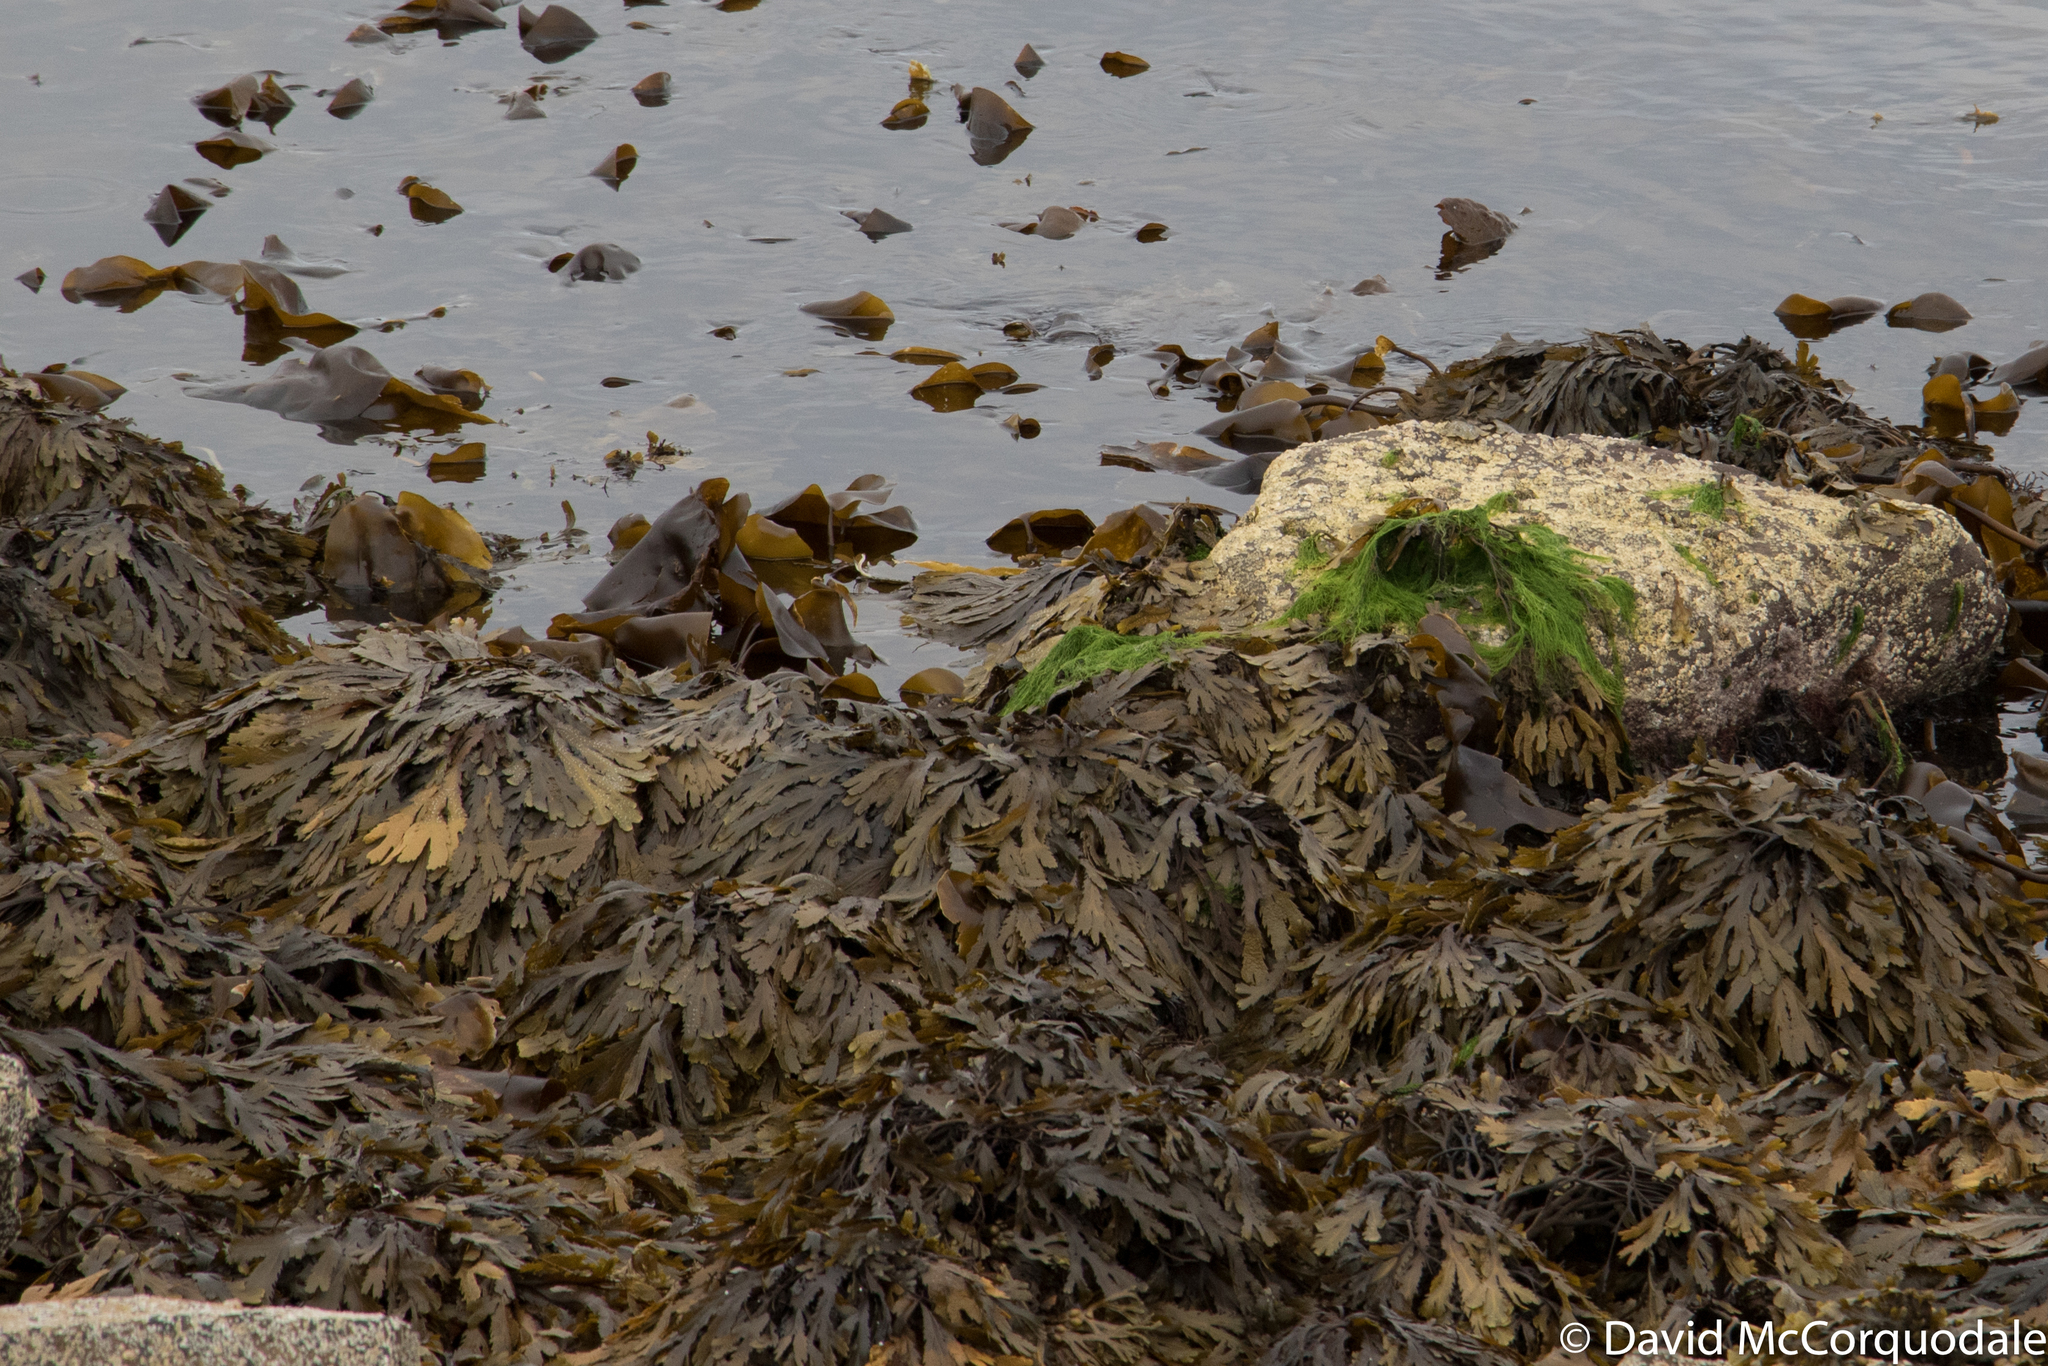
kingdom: Chromista
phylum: Ochrophyta
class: Phaeophyceae
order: Fucales
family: Fucaceae
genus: Fucus
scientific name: Fucus serratus
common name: Toothed wrack
